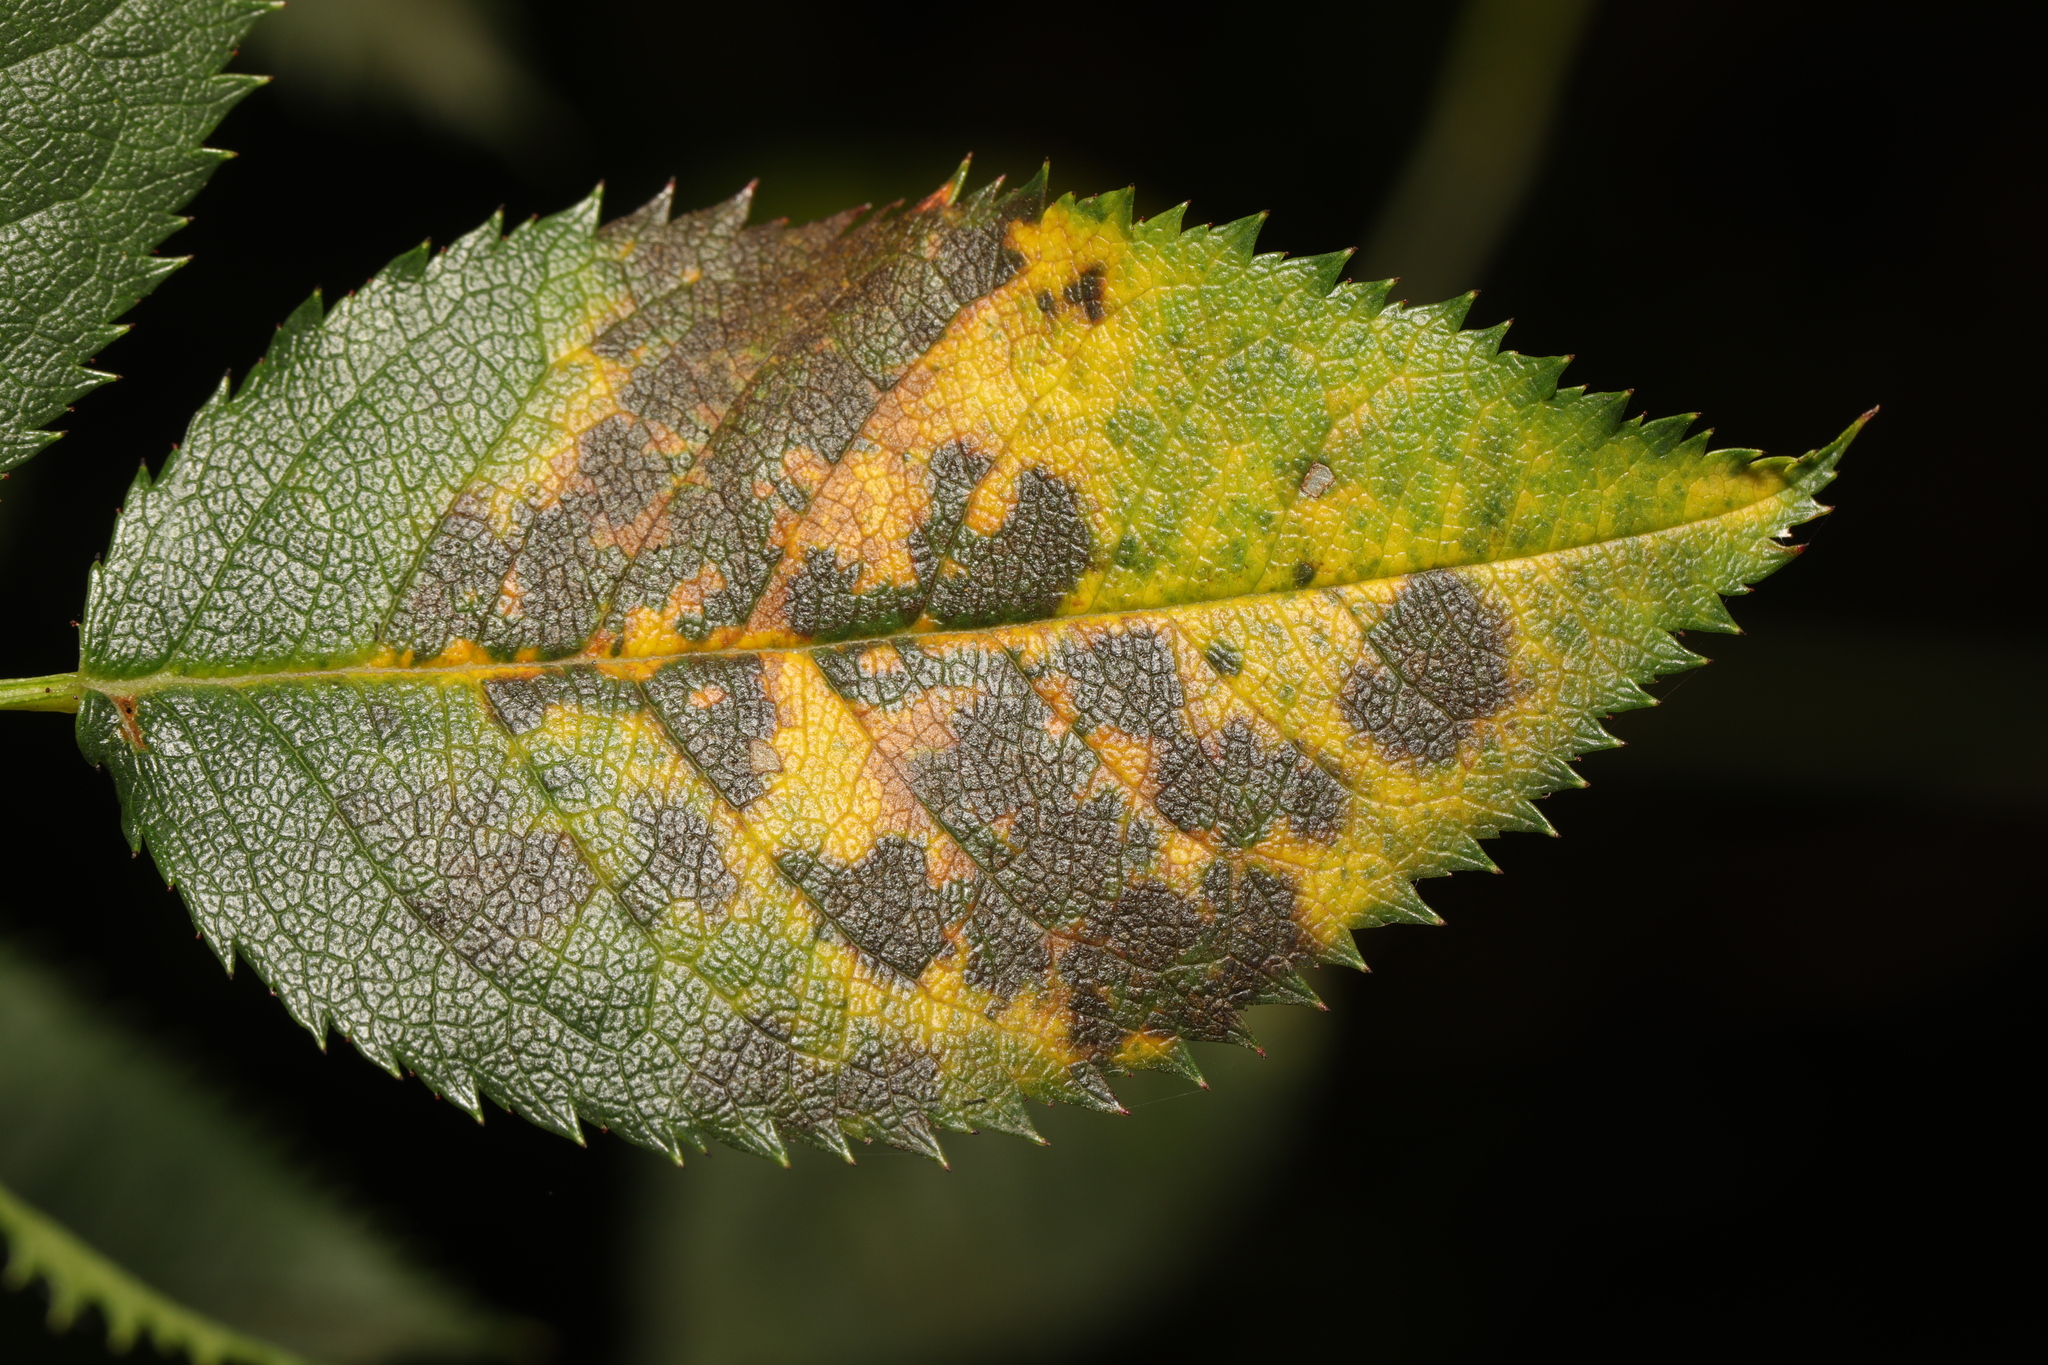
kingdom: Fungi
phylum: Ascomycota
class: Leotiomycetes
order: Helotiales
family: Drepanopezizaceae
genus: Diplocarpon
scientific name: Diplocarpon rosae
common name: Rose black-spot
